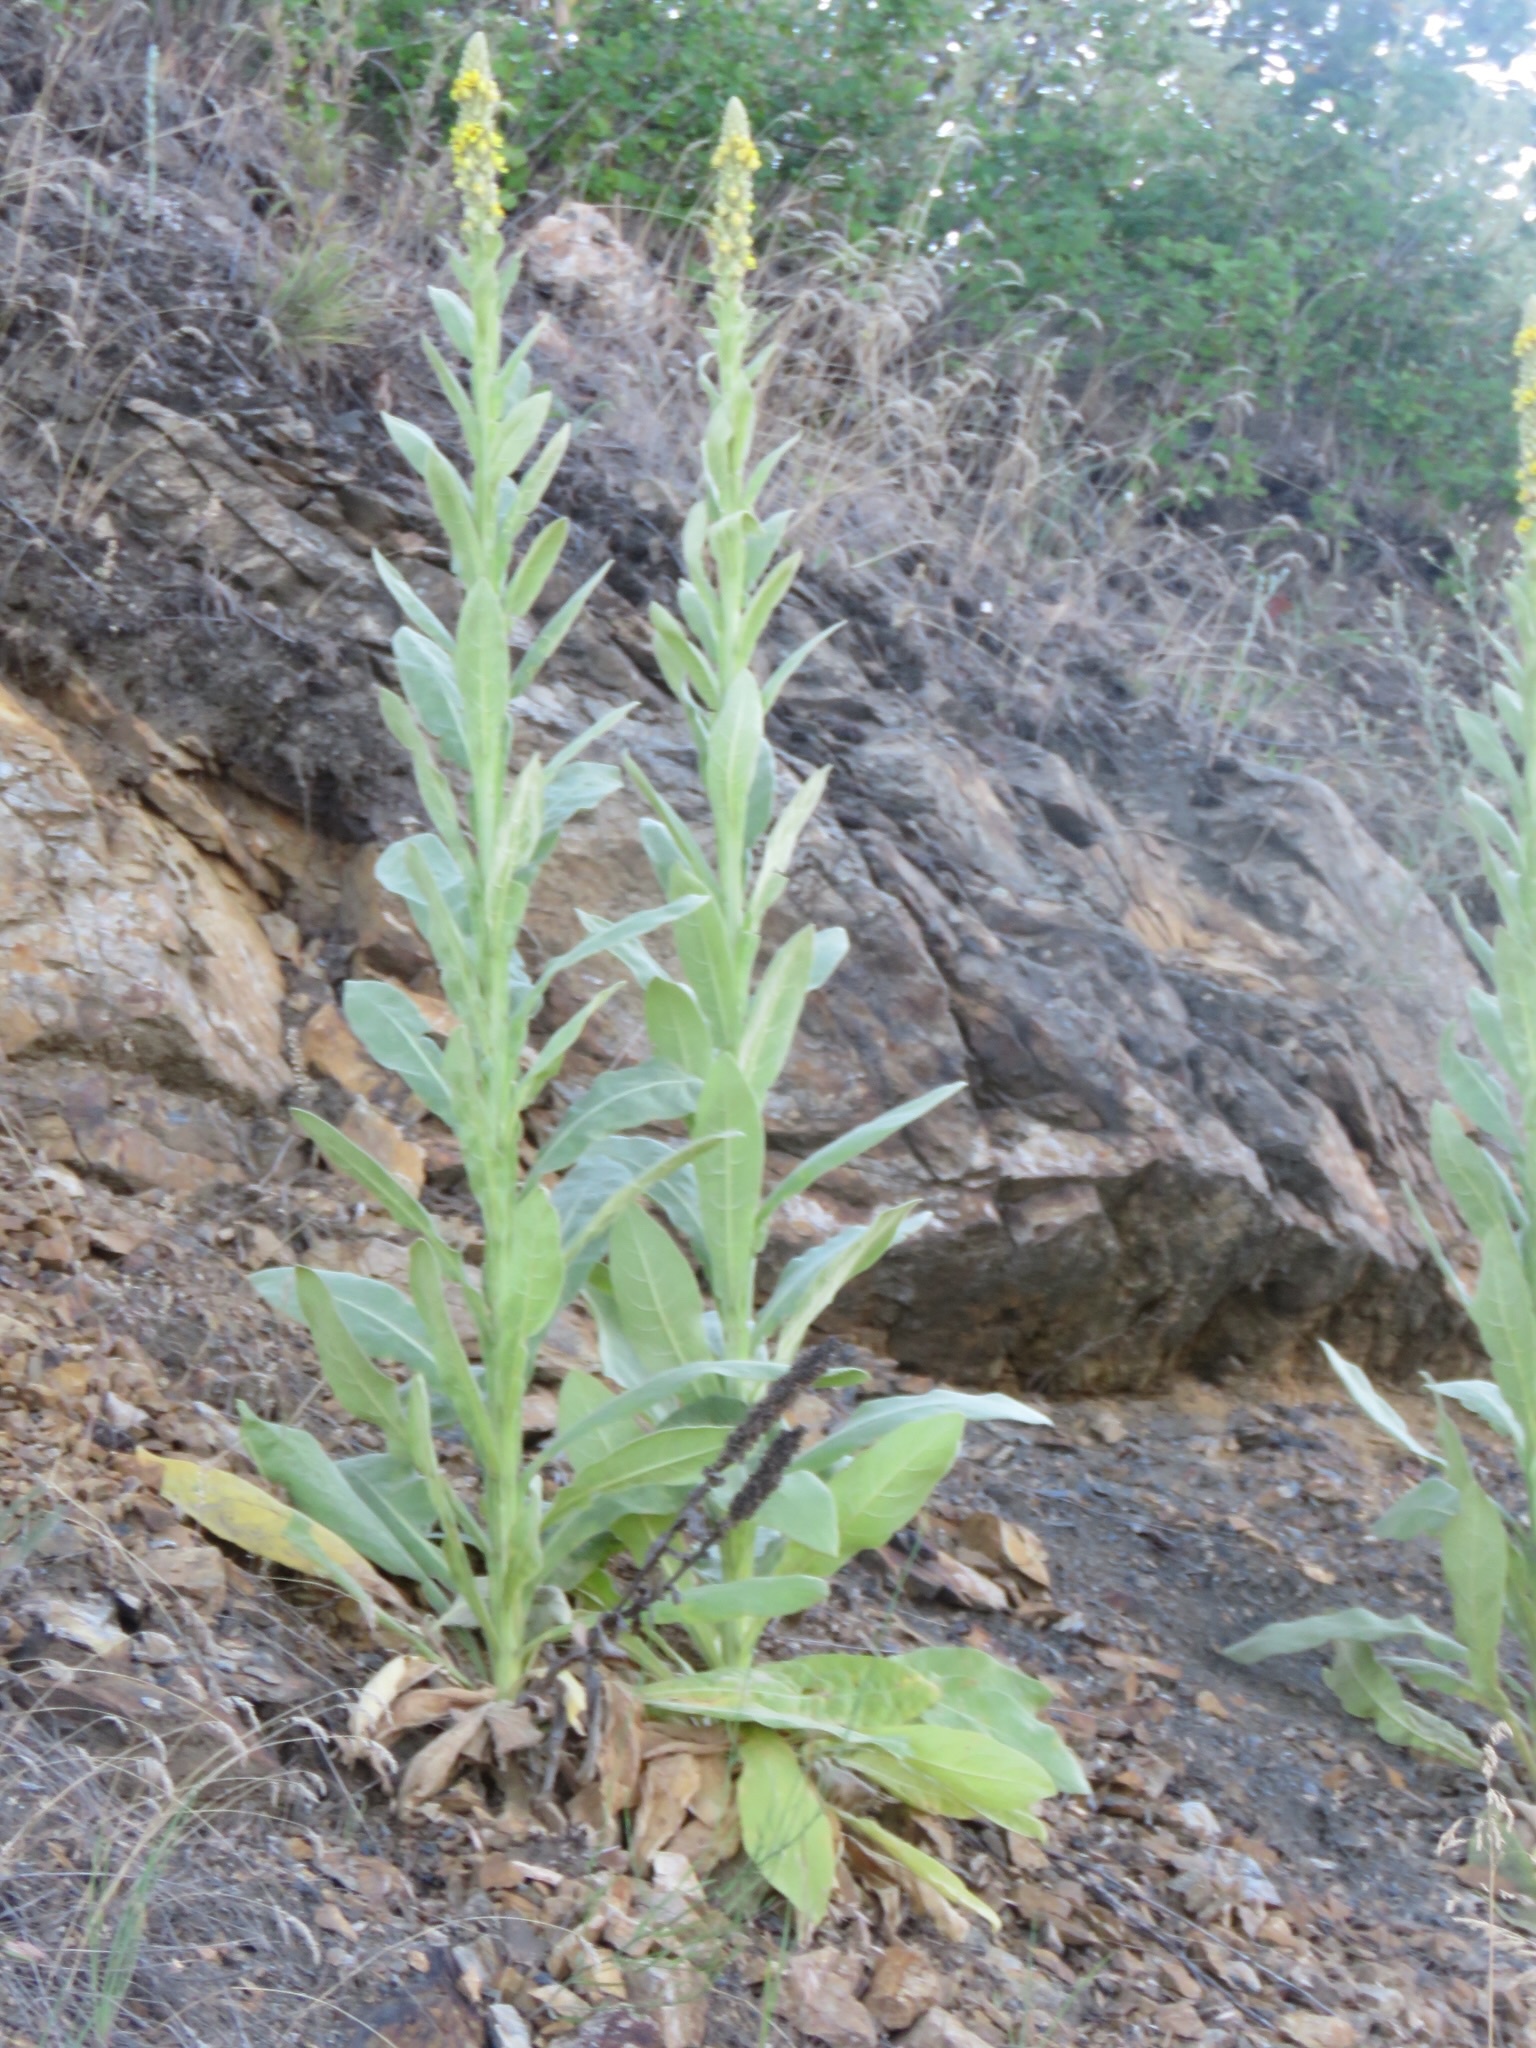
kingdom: Plantae
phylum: Tracheophyta
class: Magnoliopsida
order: Lamiales
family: Scrophulariaceae
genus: Verbascum
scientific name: Verbascum thapsus
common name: Common mullein
